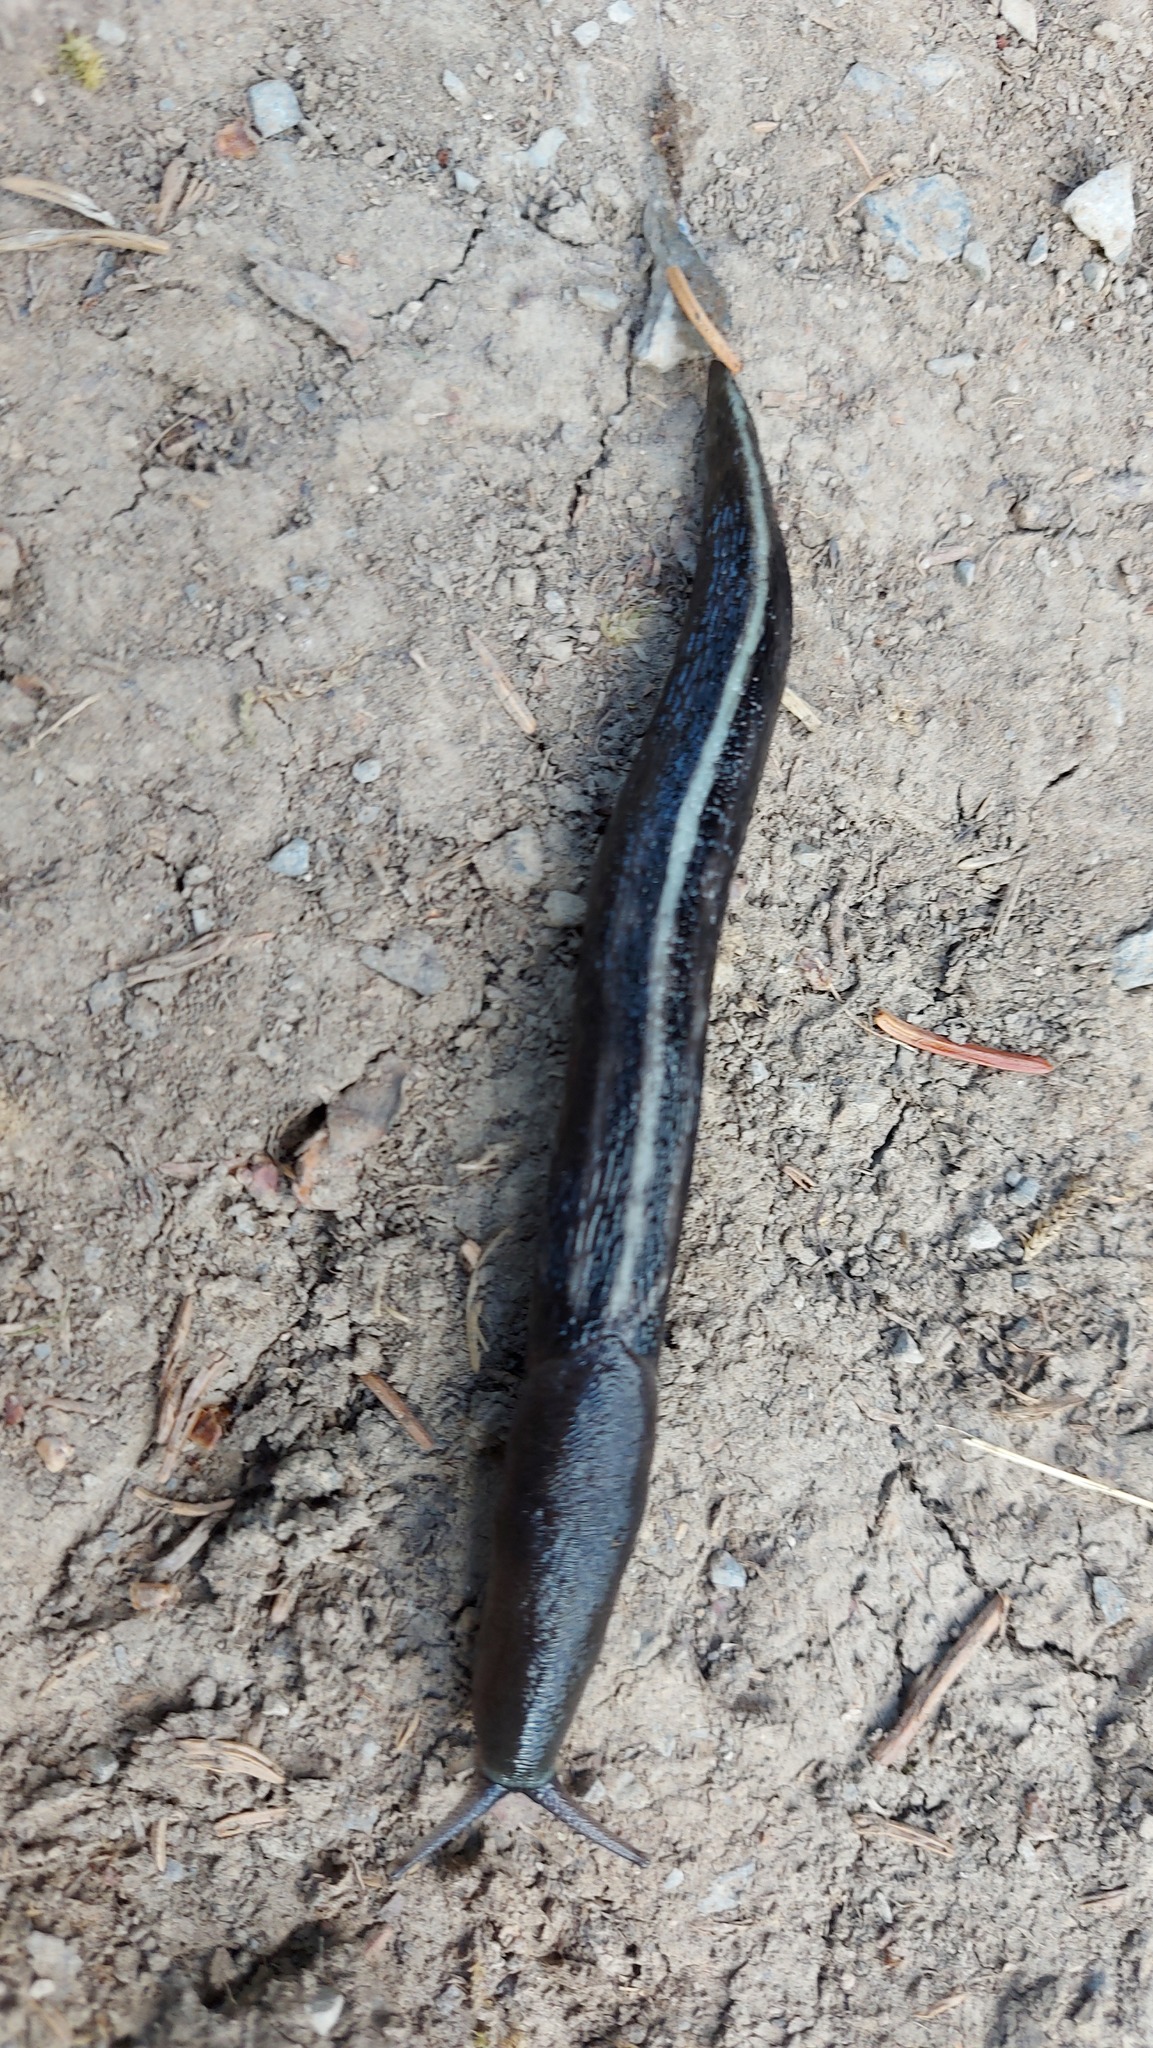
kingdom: Animalia
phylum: Mollusca
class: Gastropoda
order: Stylommatophora
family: Limacidae
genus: Limax
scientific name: Limax cinereoniger
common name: Ash-black slug
